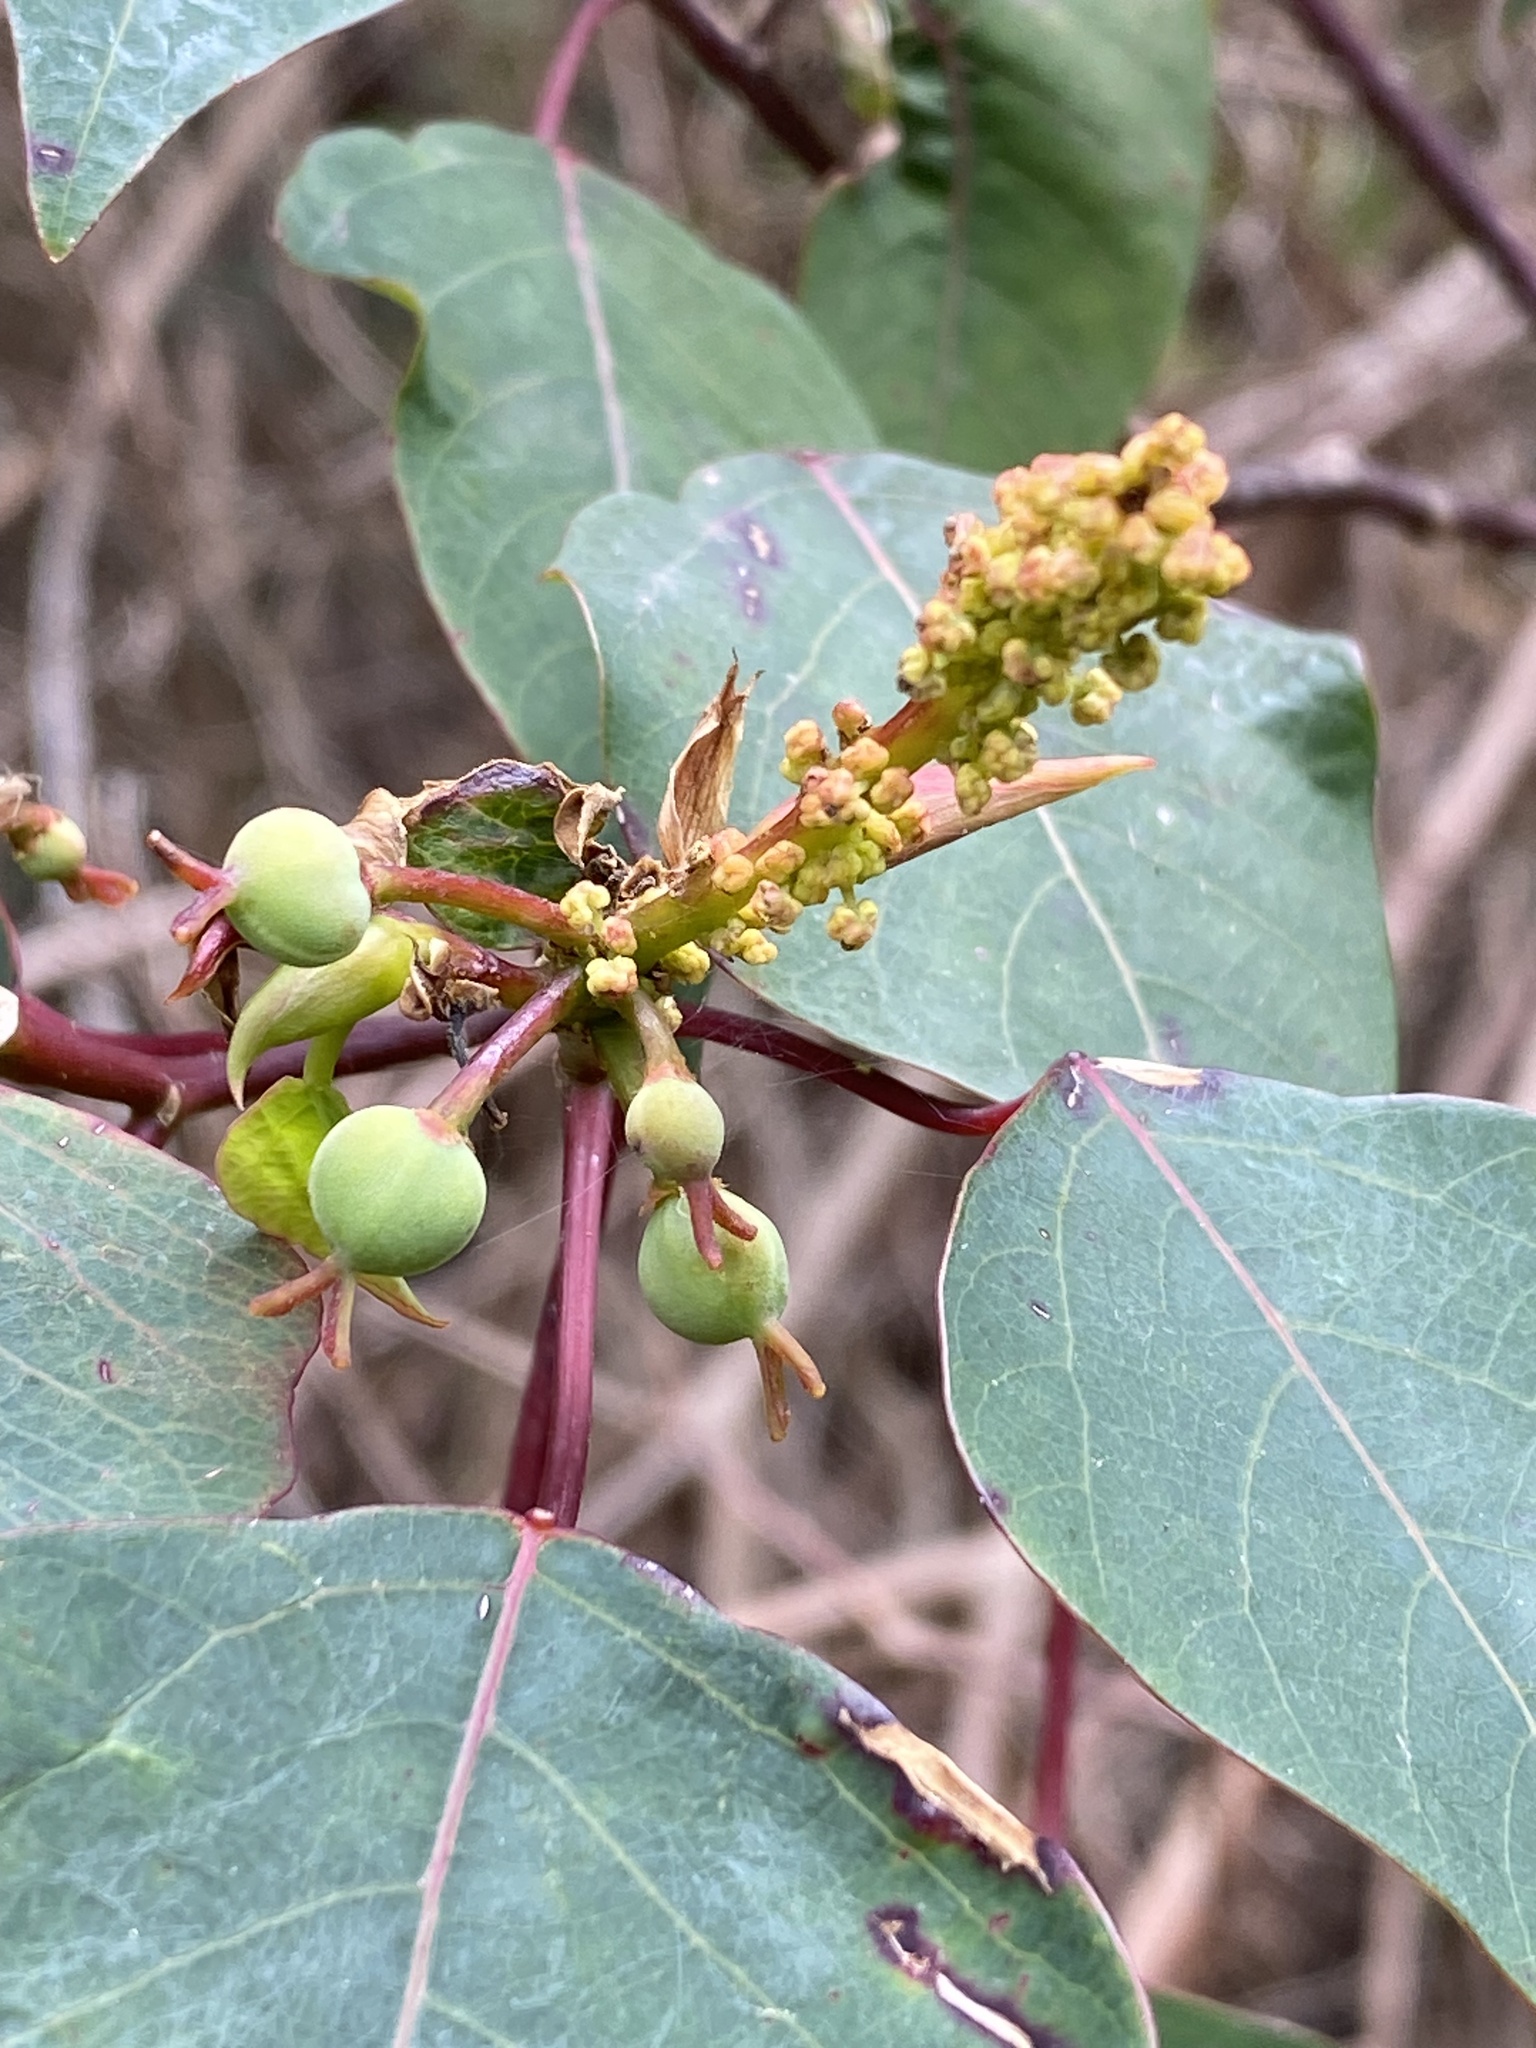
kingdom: Plantae
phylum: Tracheophyta
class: Magnoliopsida
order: Malpighiales
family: Euphorbiaceae
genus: Homalanthus
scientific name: Homalanthus populifolius
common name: Queensland poplar
